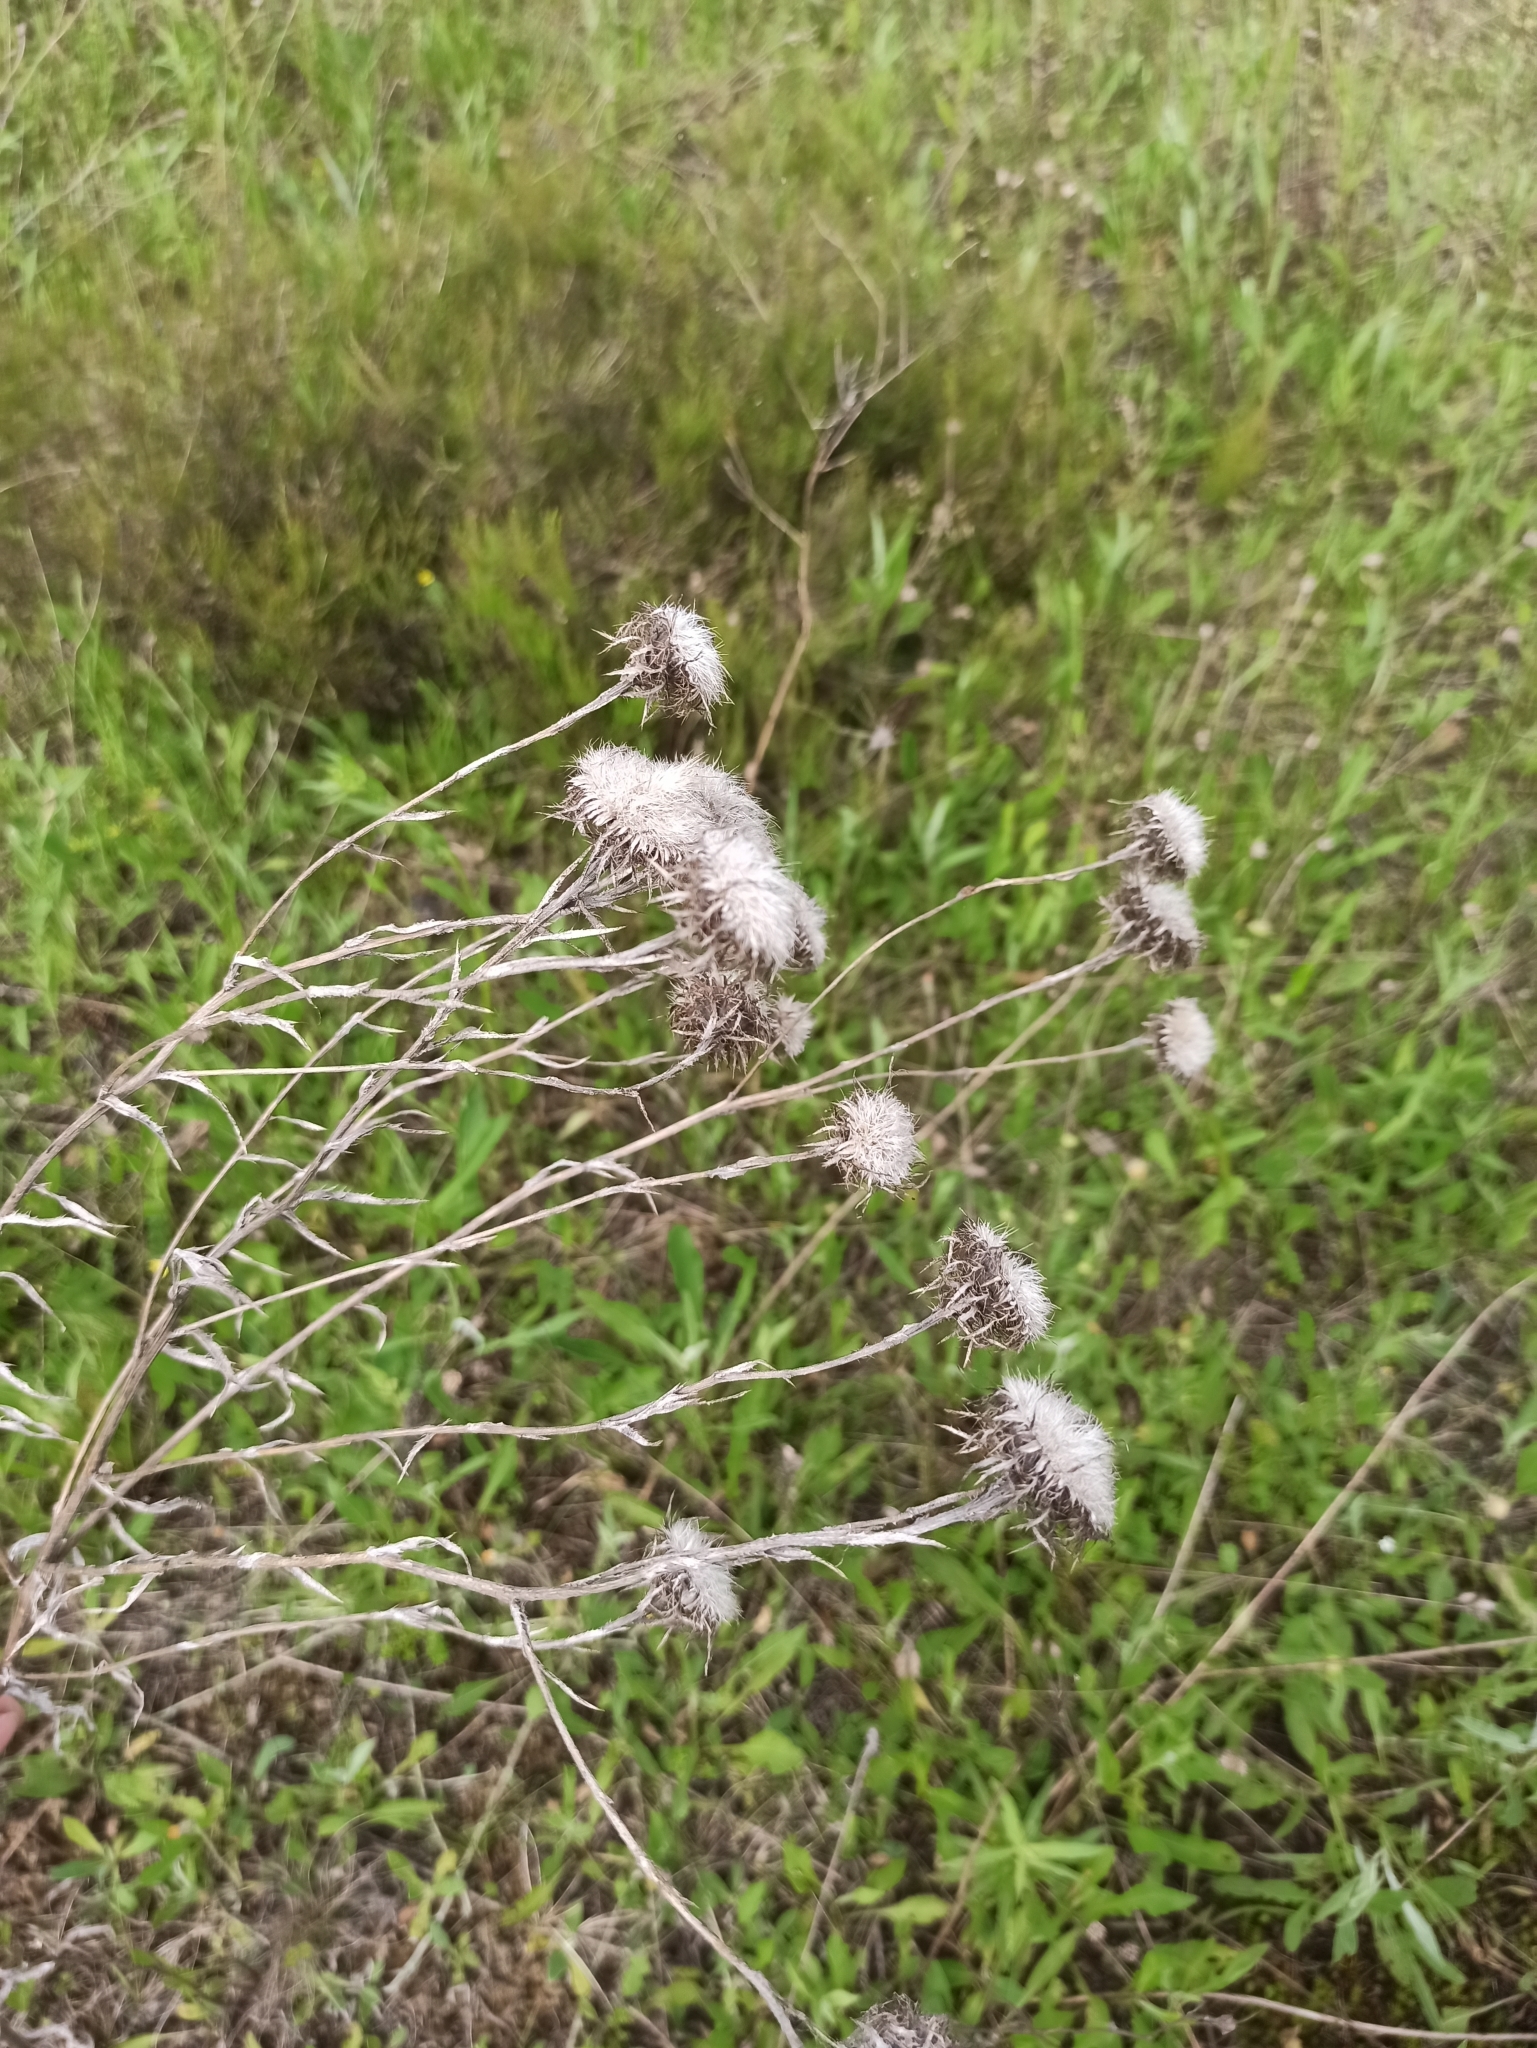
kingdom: Plantae
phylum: Tracheophyta
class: Magnoliopsida
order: Asterales
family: Asteraceae
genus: Carlina
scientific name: Carlina biebersteinii
